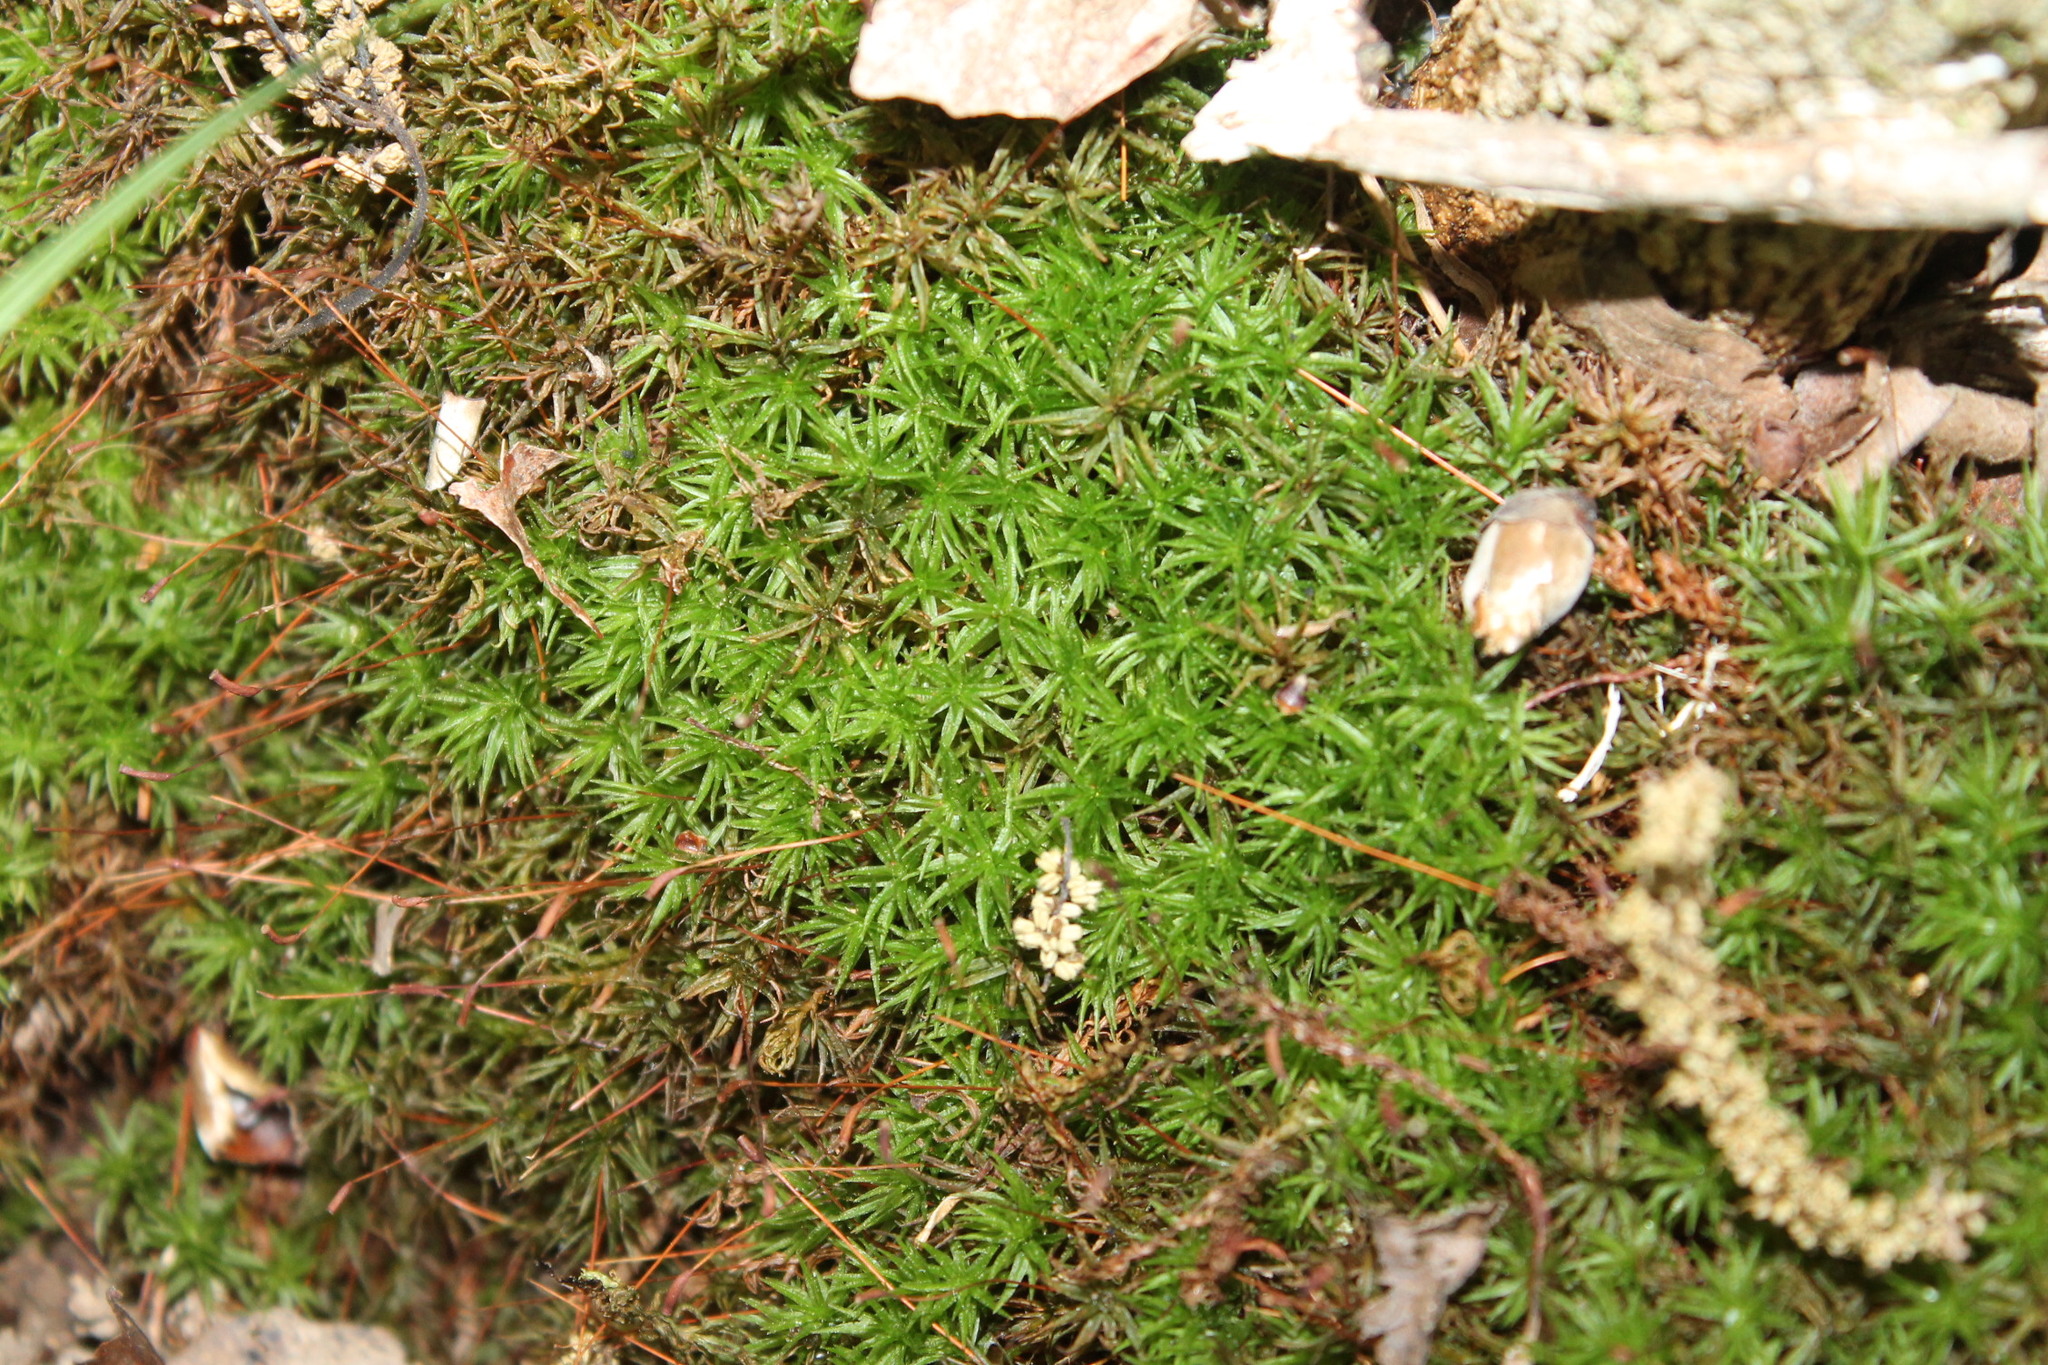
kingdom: Plantae
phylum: Bryophyta
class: Polytrichopsida
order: Polytrichales
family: Polytrichaceae
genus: Atrichum
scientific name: Atrichum angustatum
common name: Lesser smoothcap
